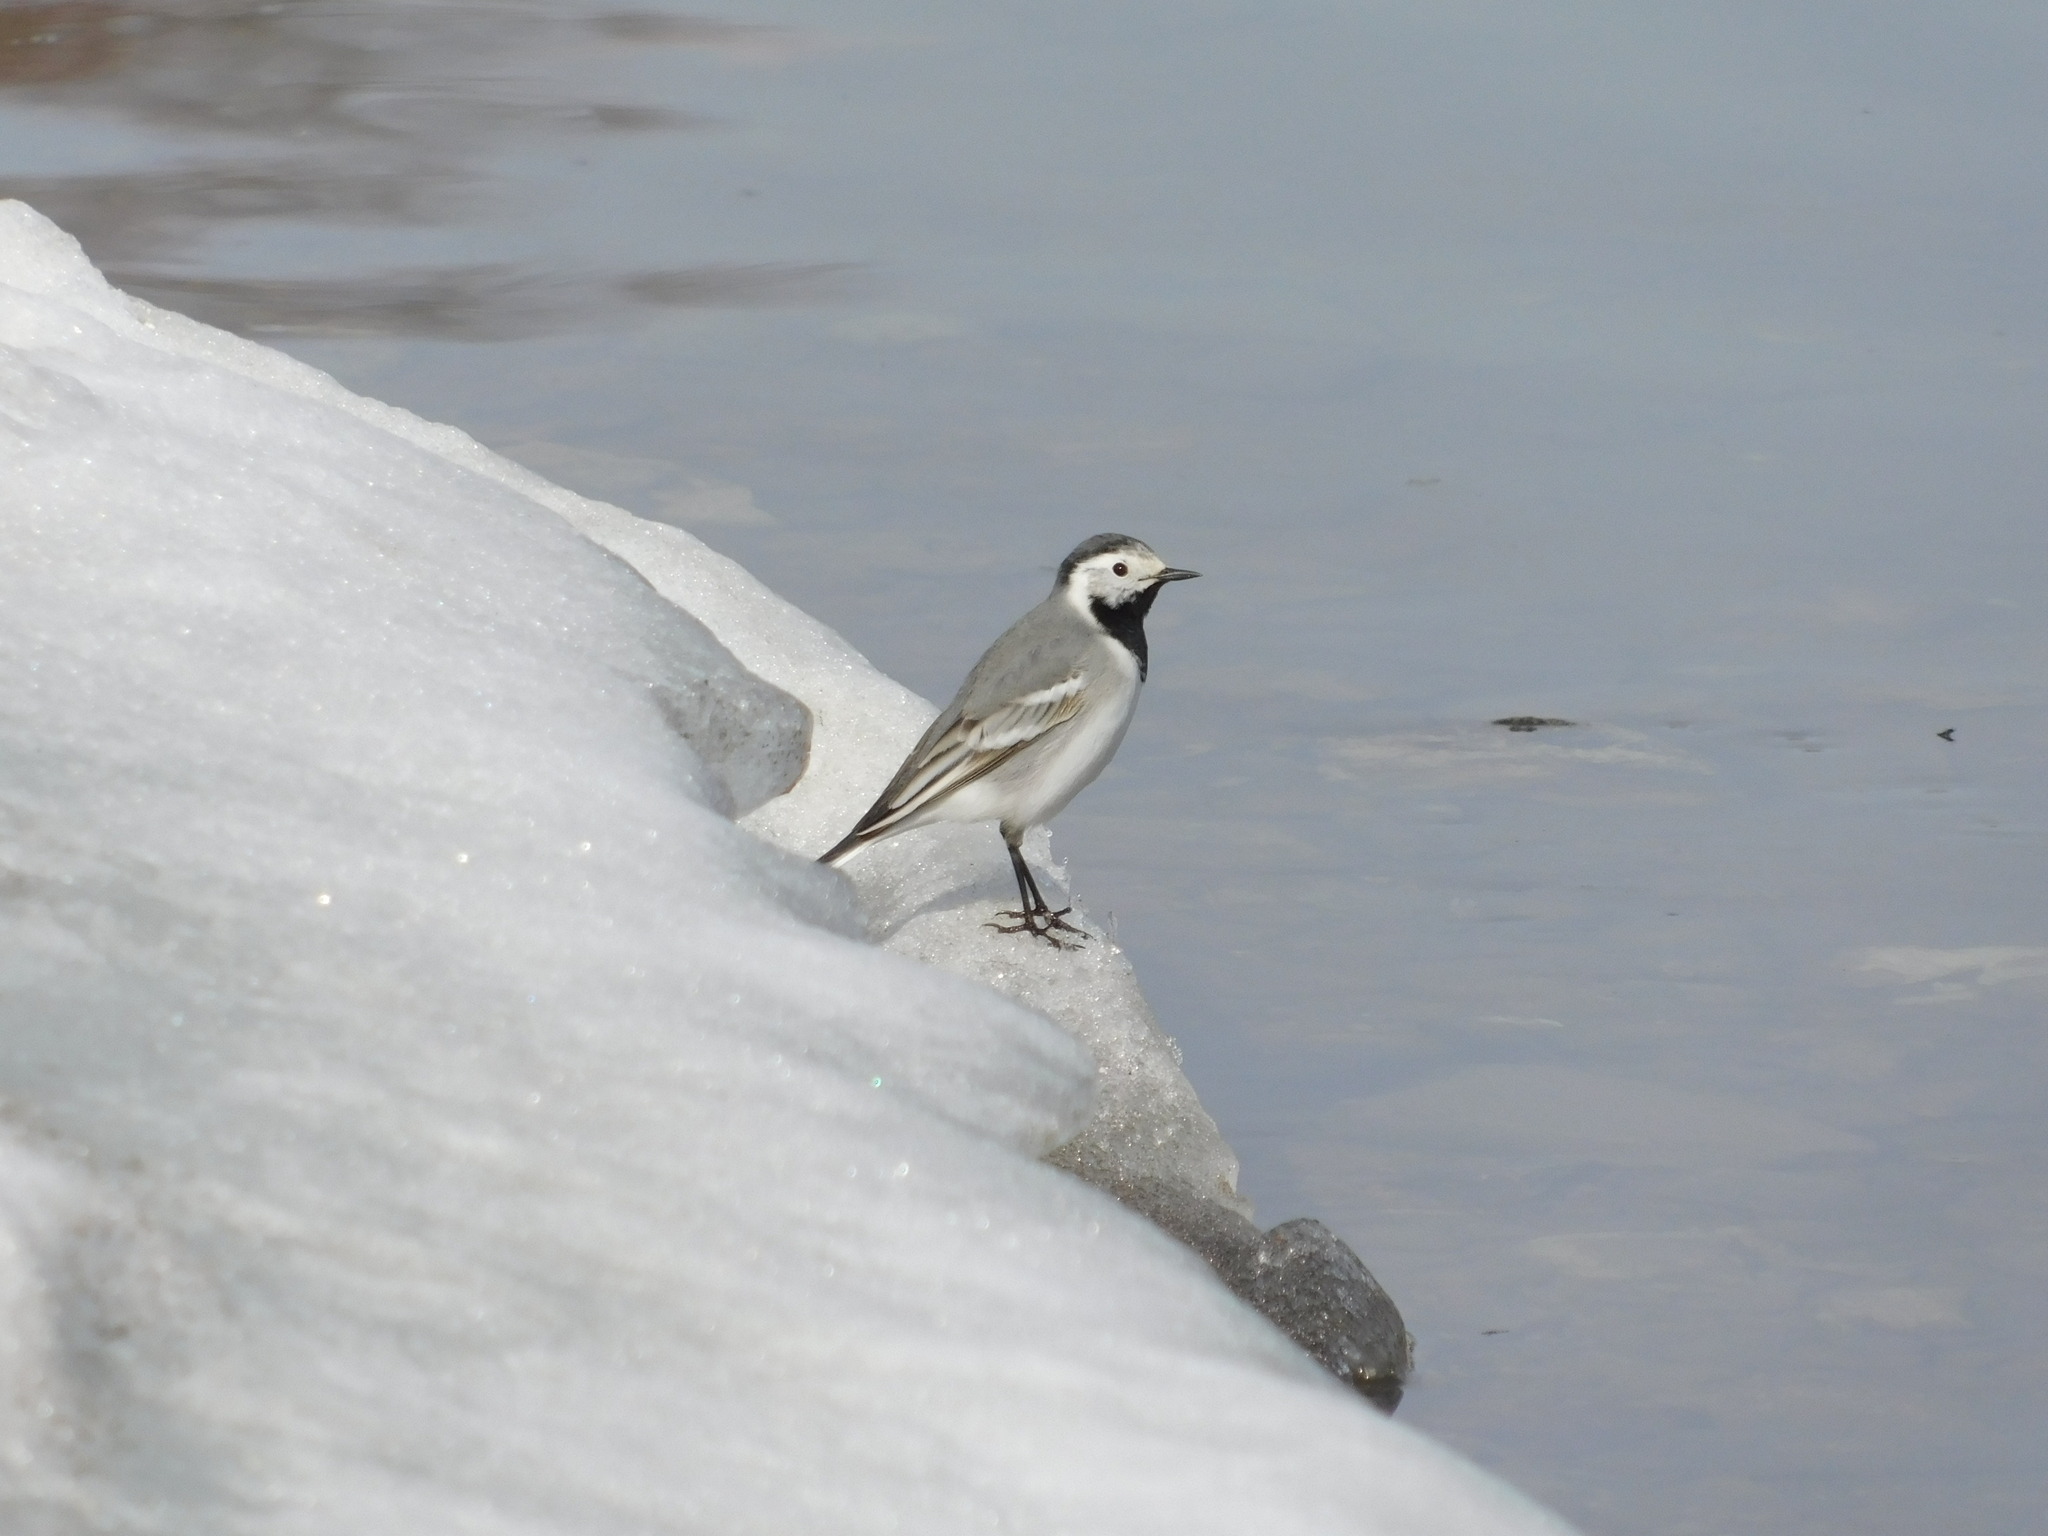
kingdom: Animalia
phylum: Chordata
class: Aves
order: Passeriformes
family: Motacillidae
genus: Motacilla
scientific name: Motacilla alba
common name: White wagtail
